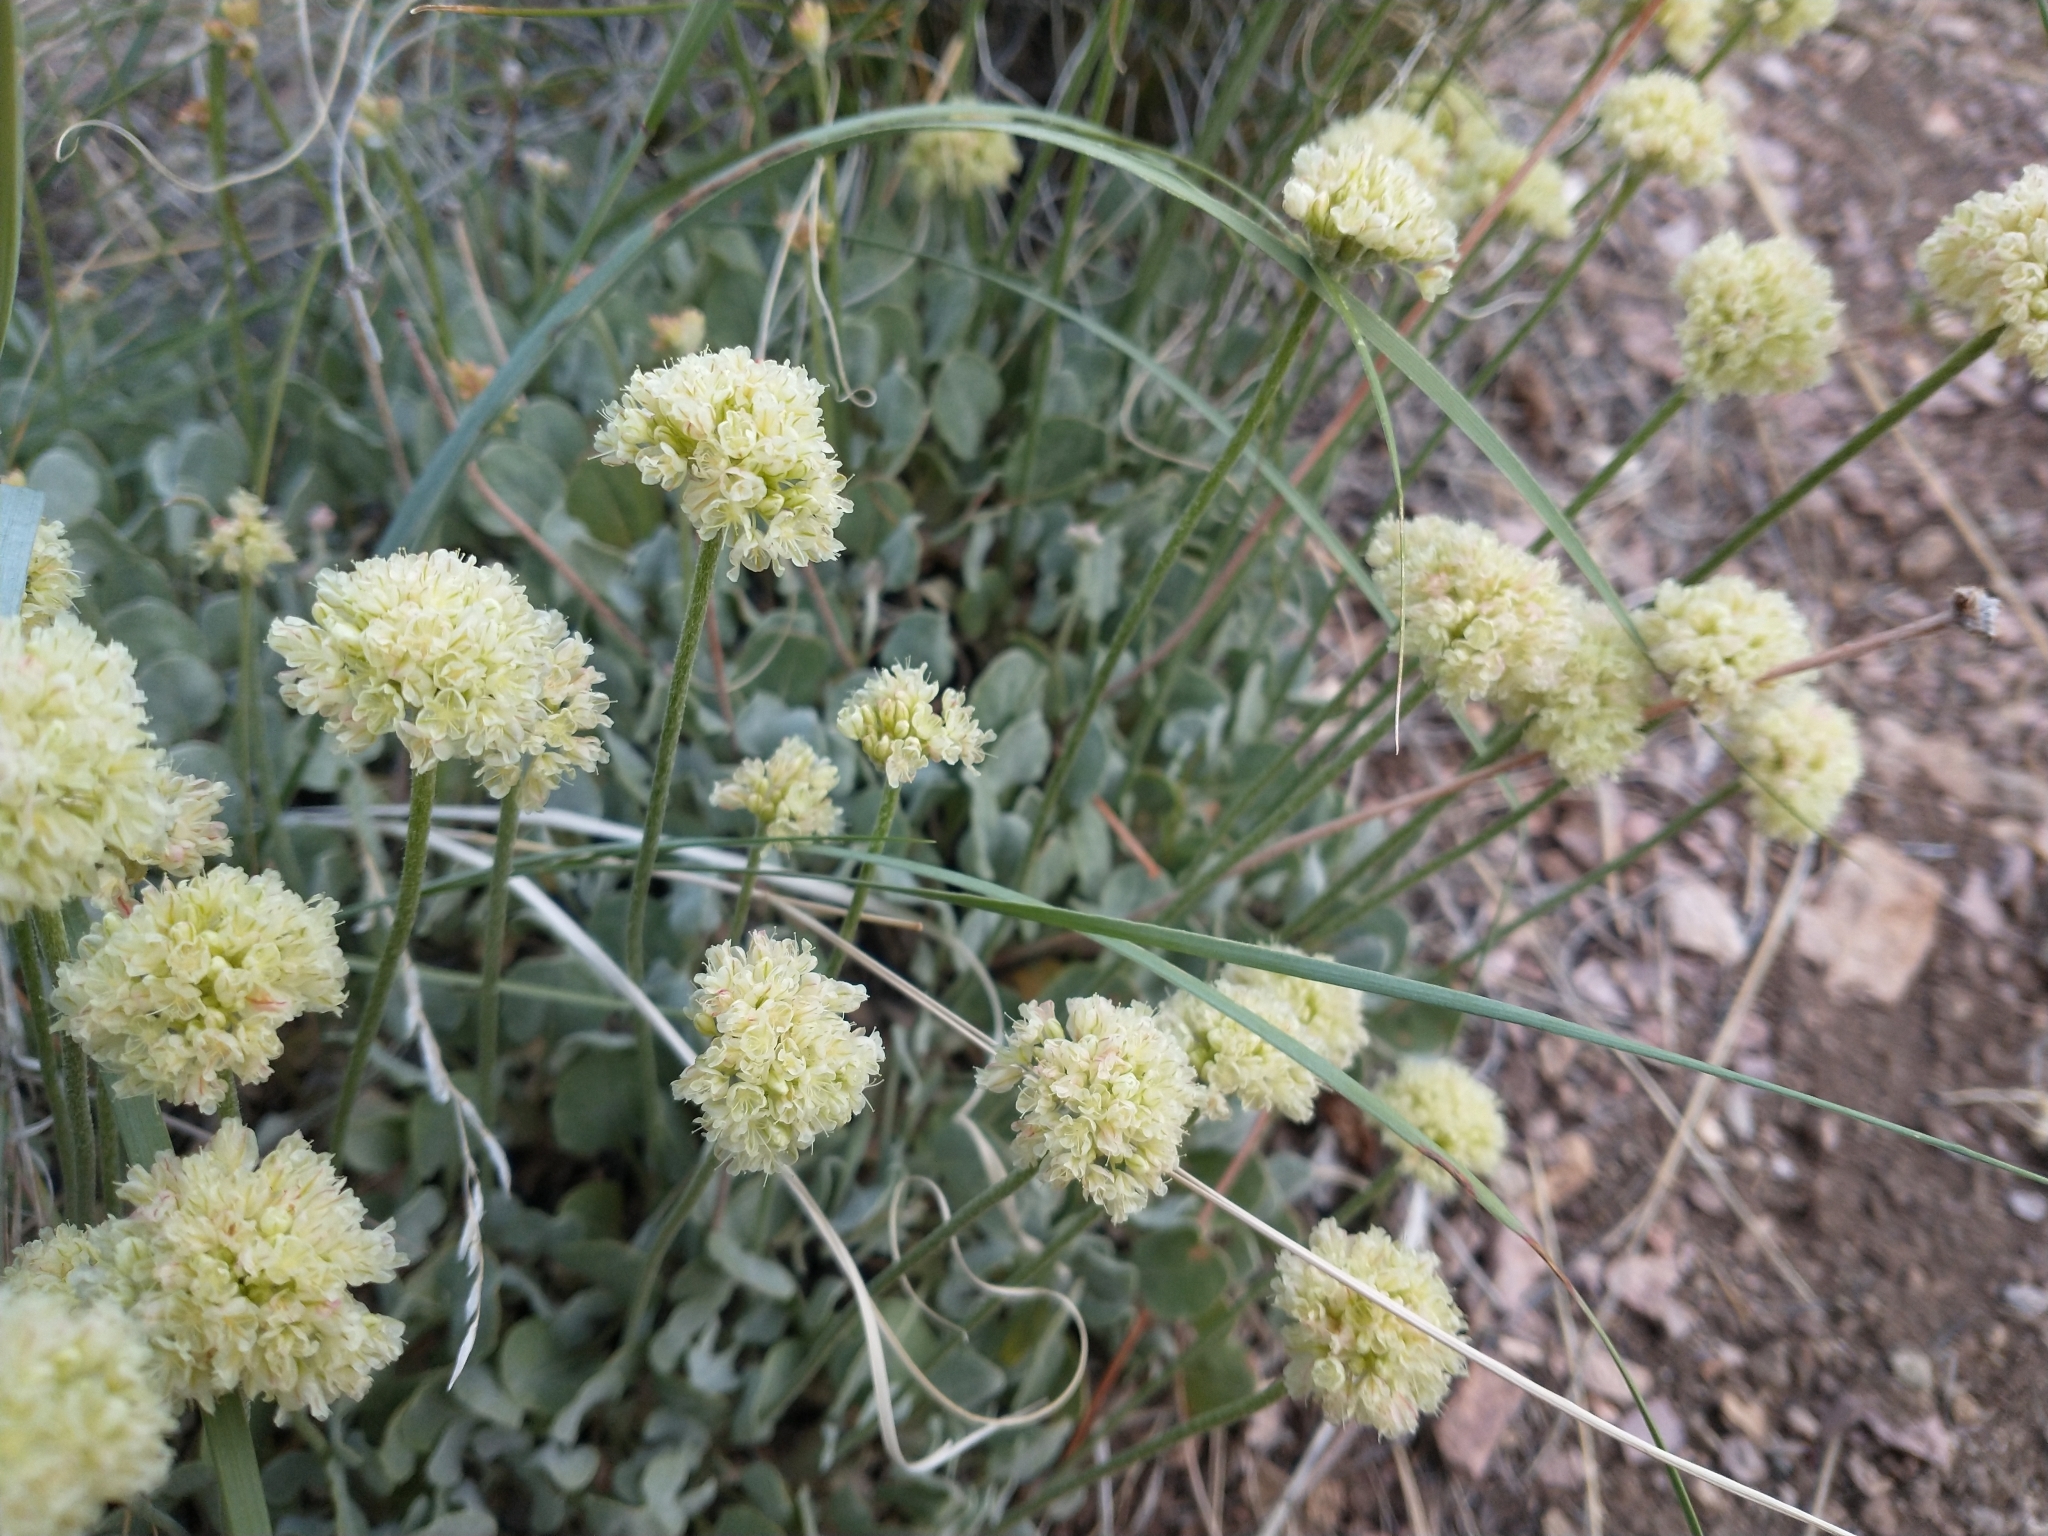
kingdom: Plantae
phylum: Tracheophyta
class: Magnoliopsida
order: Caryophyllales
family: Polygonaceae
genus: Eriogonum
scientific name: Eriogonum ovalifolium
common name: Cushion buckwheat
